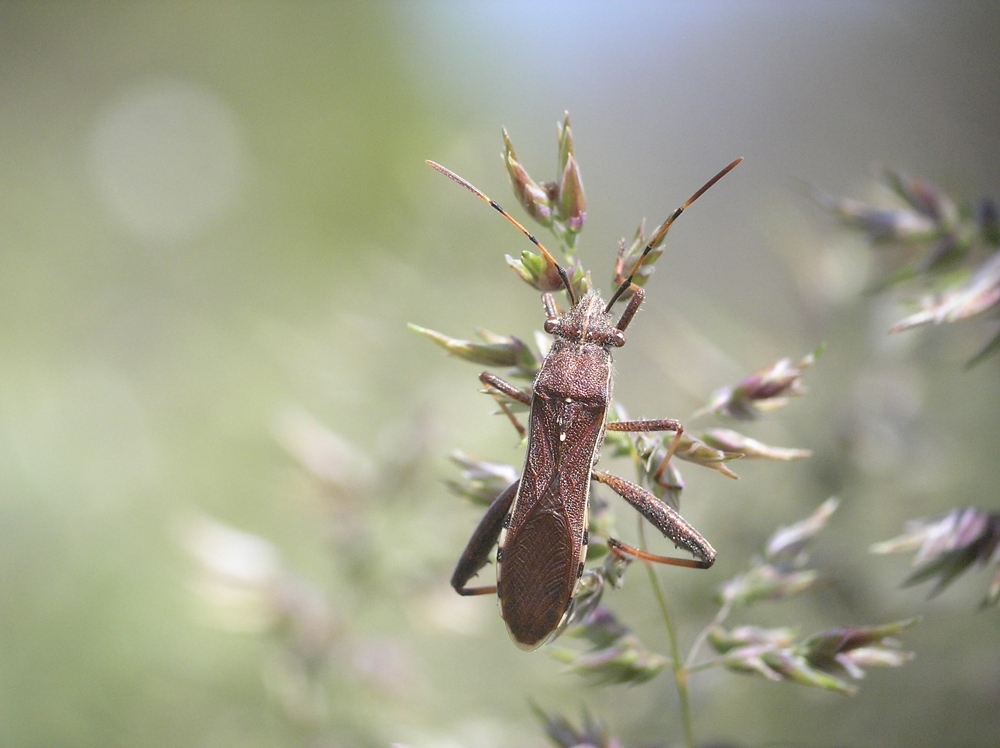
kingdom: Animalia
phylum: Arthropoda
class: Insecta
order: Hemiptera
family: Alydidae
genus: Camptopus
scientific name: Camptopus lateralis
